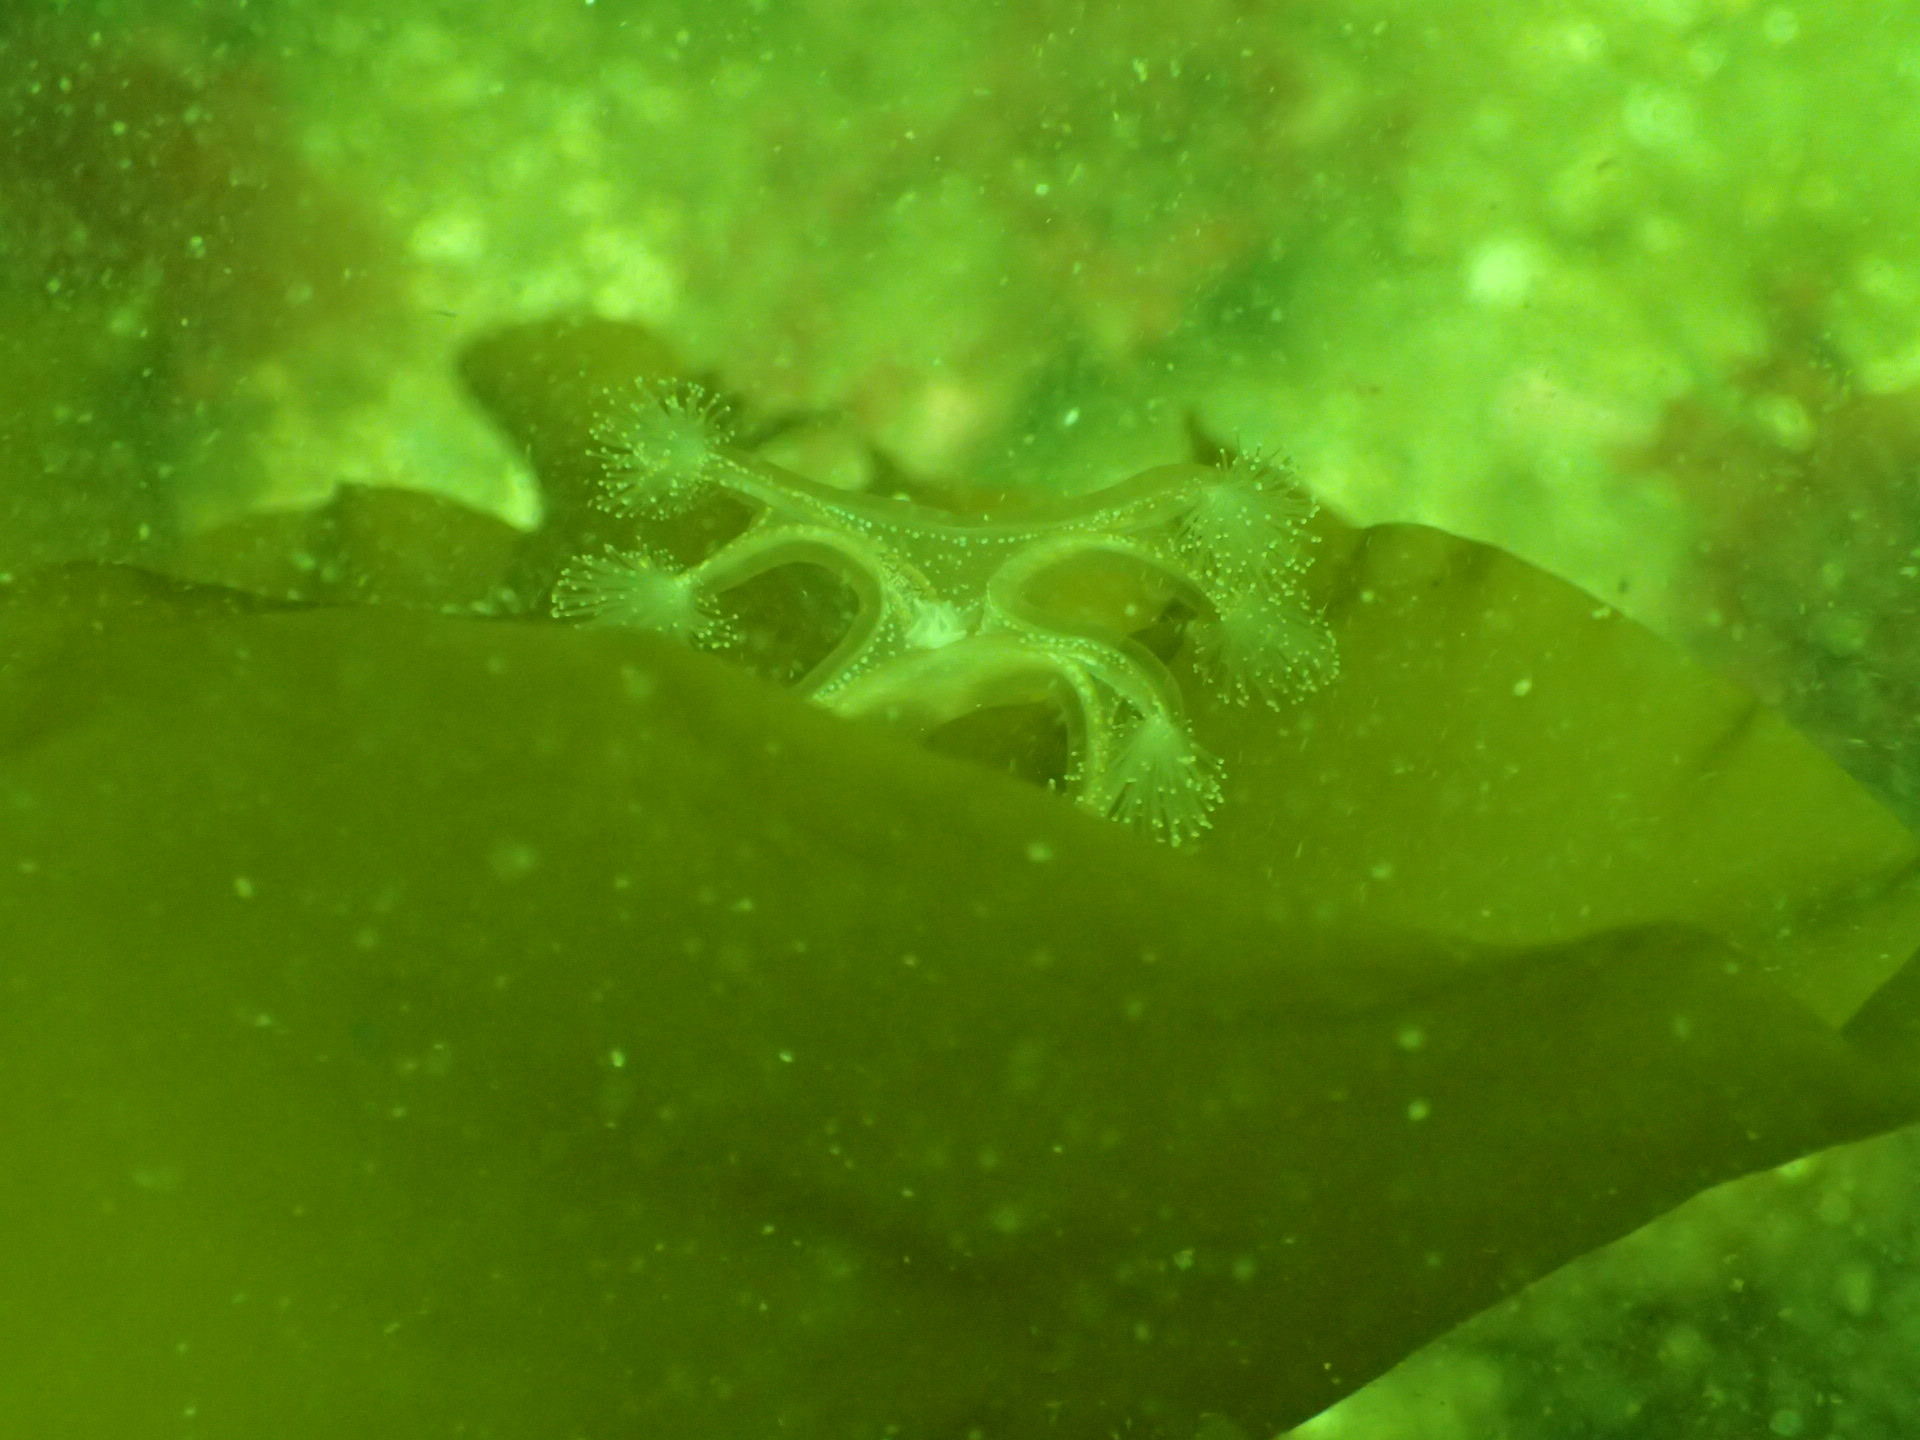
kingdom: Animalia
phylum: Cnidaria
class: Staurozoa
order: Stauromedusae
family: Lucernariidae
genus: Lucernaria
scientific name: Lucernaria quadricornis
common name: Horned stalked jellyfish
